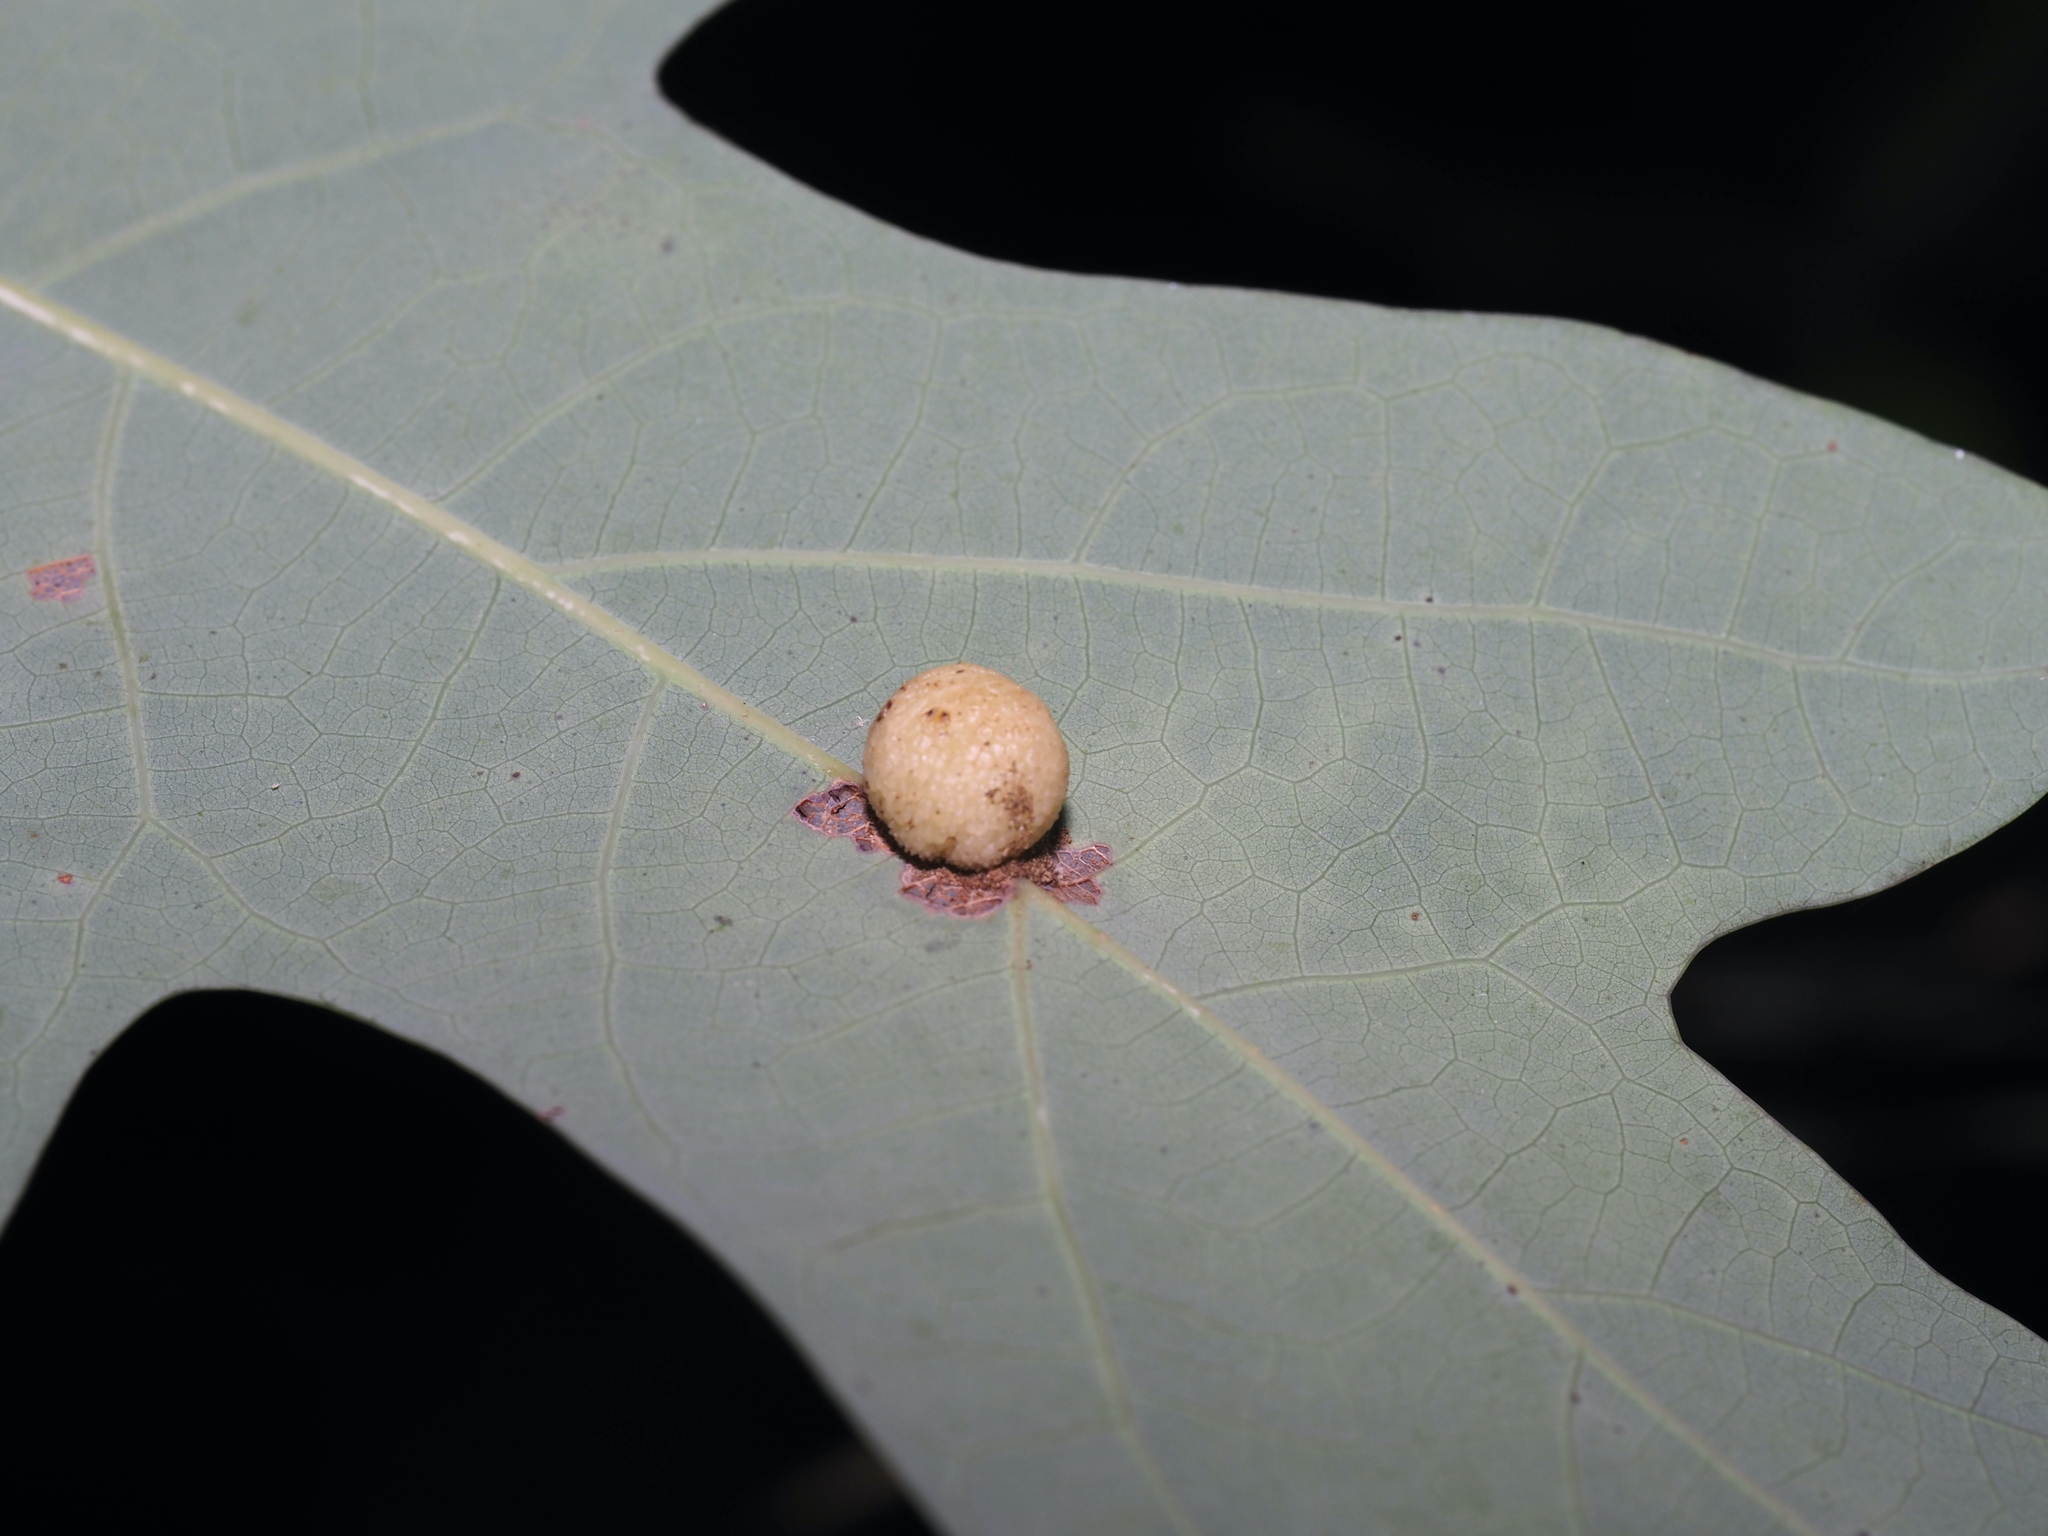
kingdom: Animalia
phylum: Arthropoda
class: Insecta
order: Hymenoptera
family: Cynipidae
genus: Acraspis
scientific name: Acraspis
